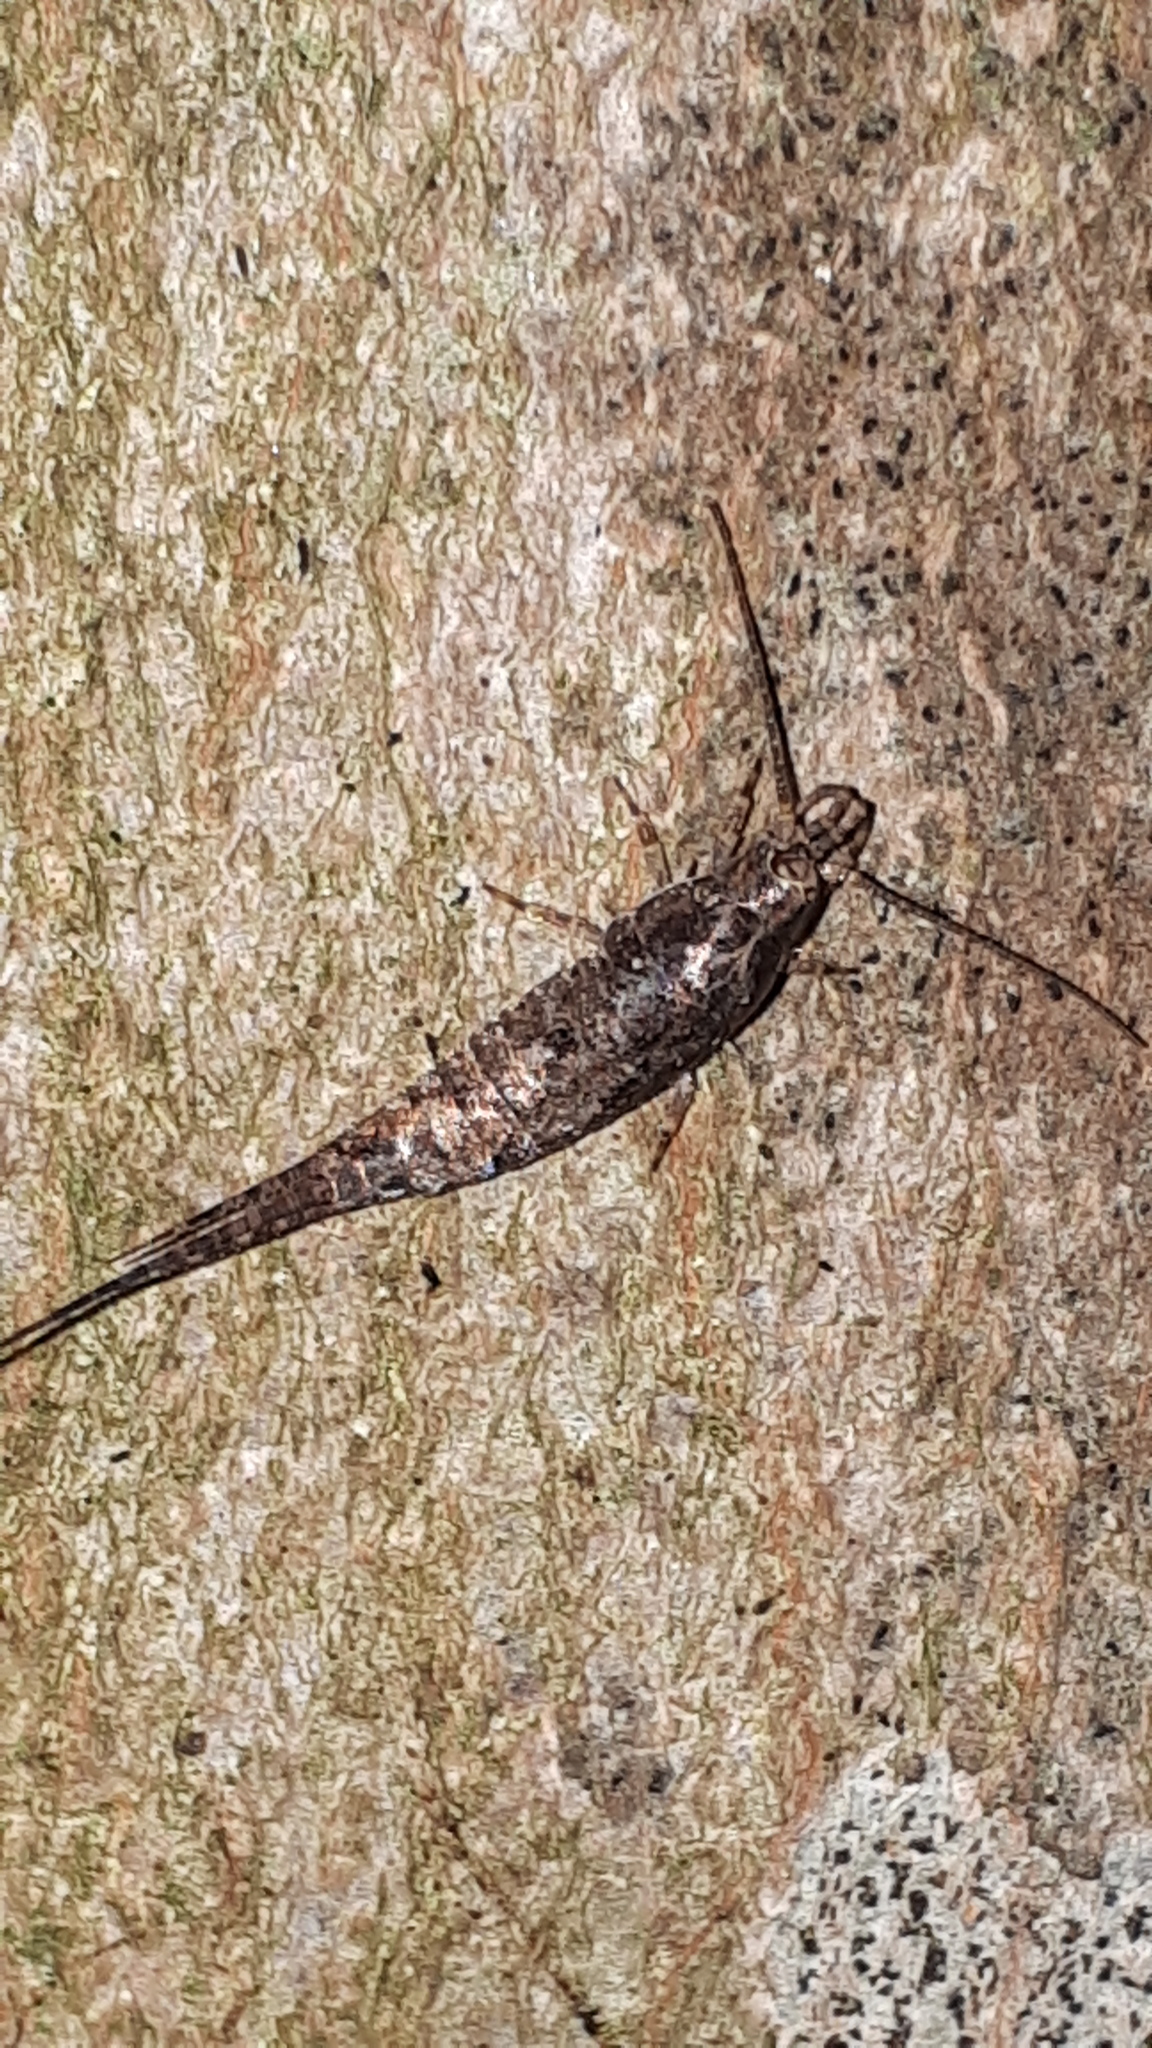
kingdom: Animalia
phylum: Arthropoda
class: Insecta
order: Archaeognatha
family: Machilidae
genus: Lepismachilis
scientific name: Lepismachilis y-signata
